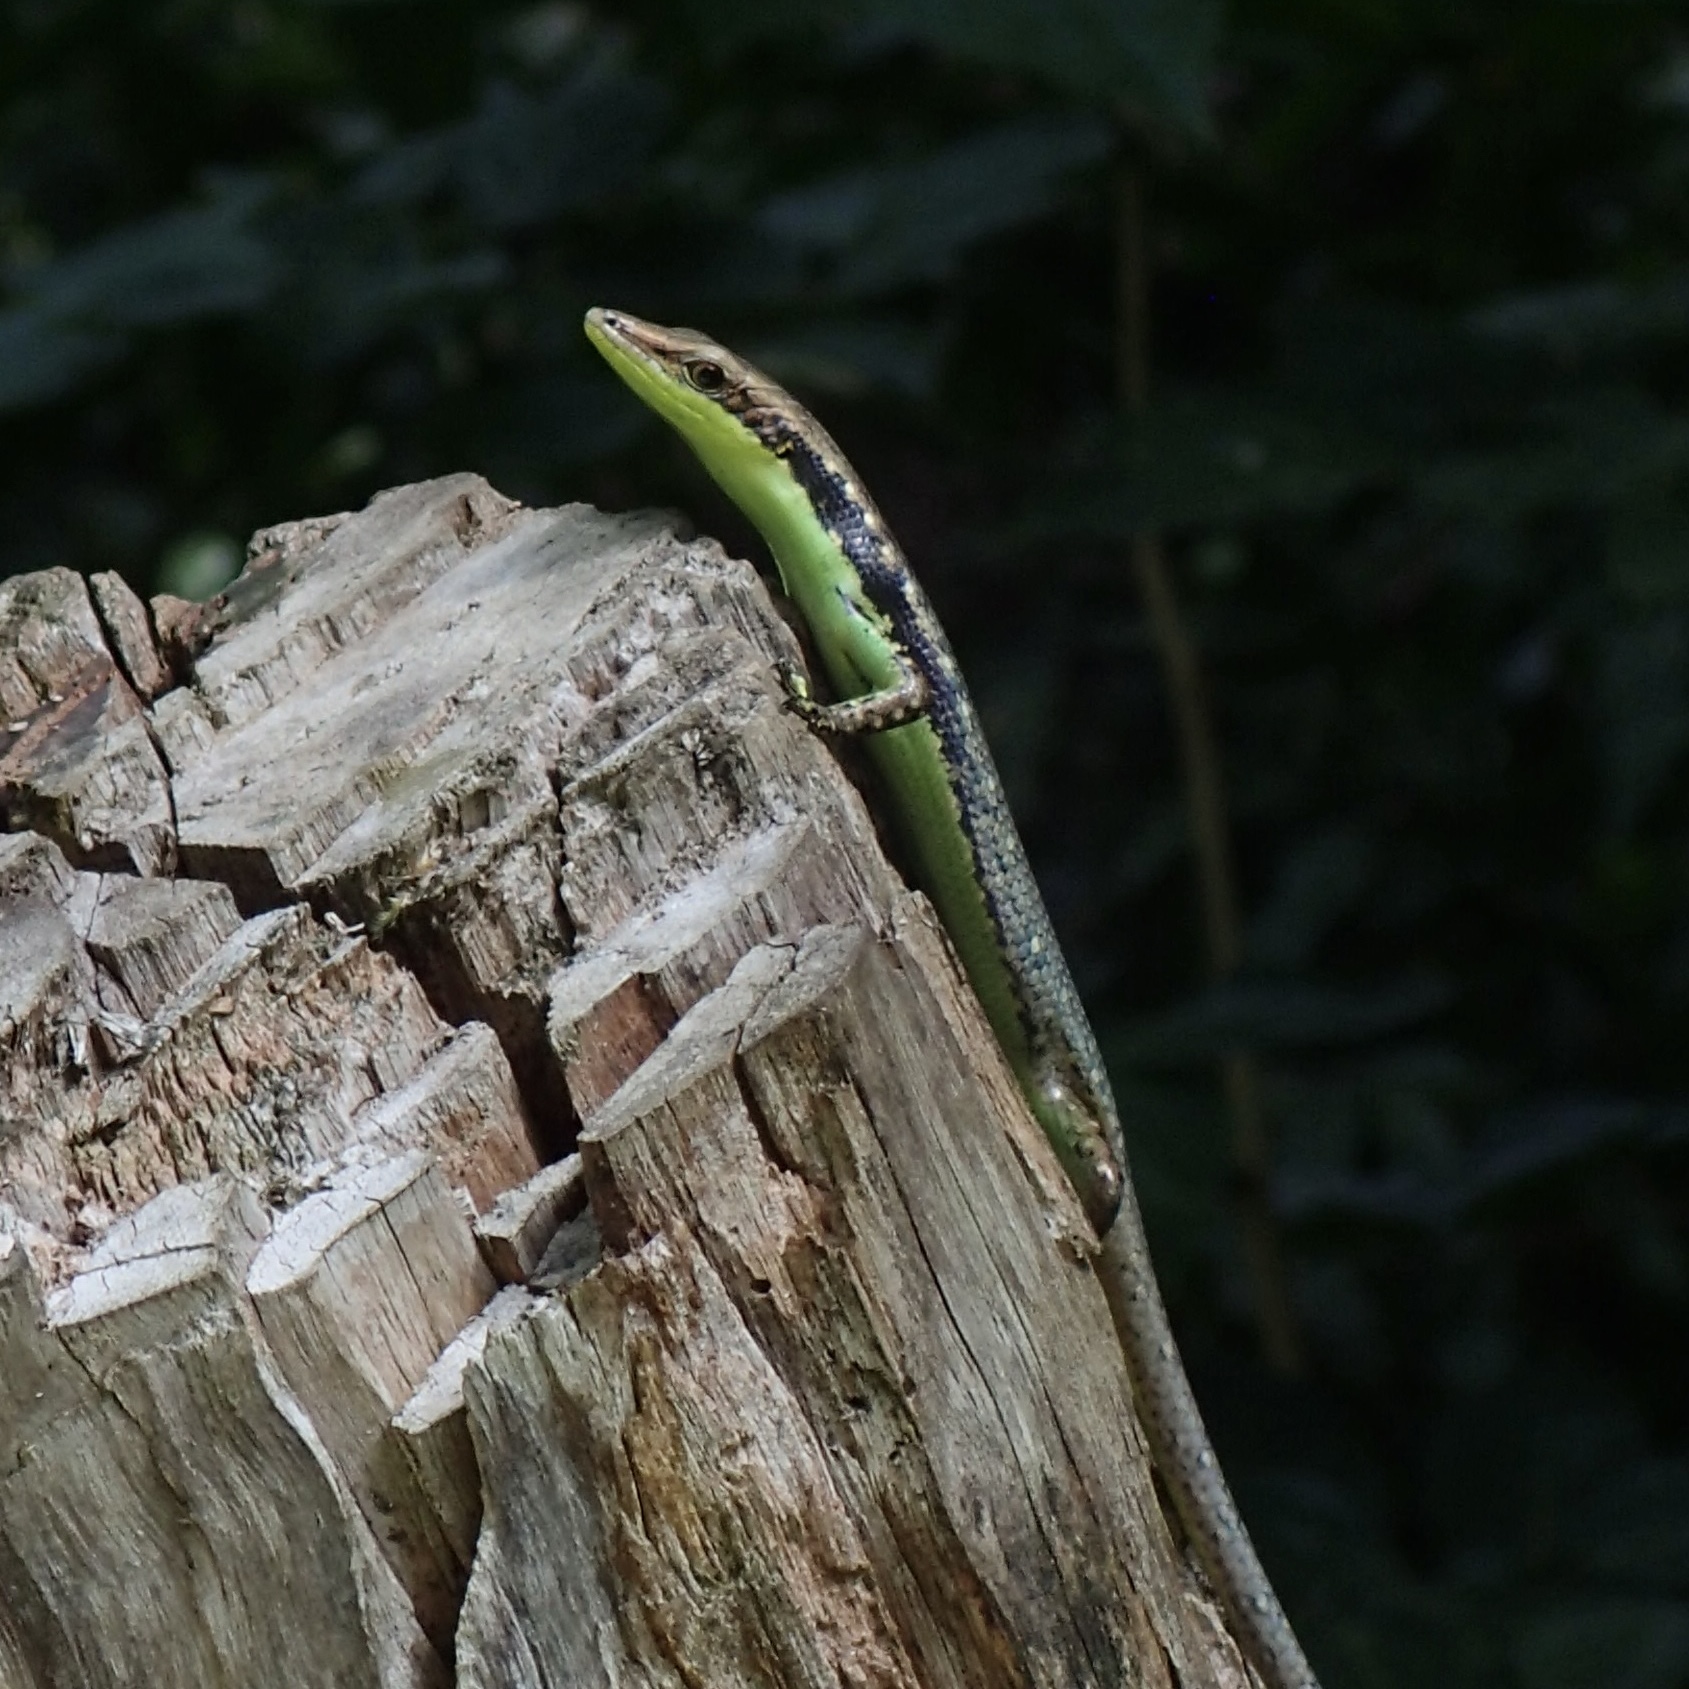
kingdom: Animalia
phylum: Chordata
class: Squamata
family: Scincidae
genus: Emoia
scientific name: Emoia cyanogaster
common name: Teal emo skink
